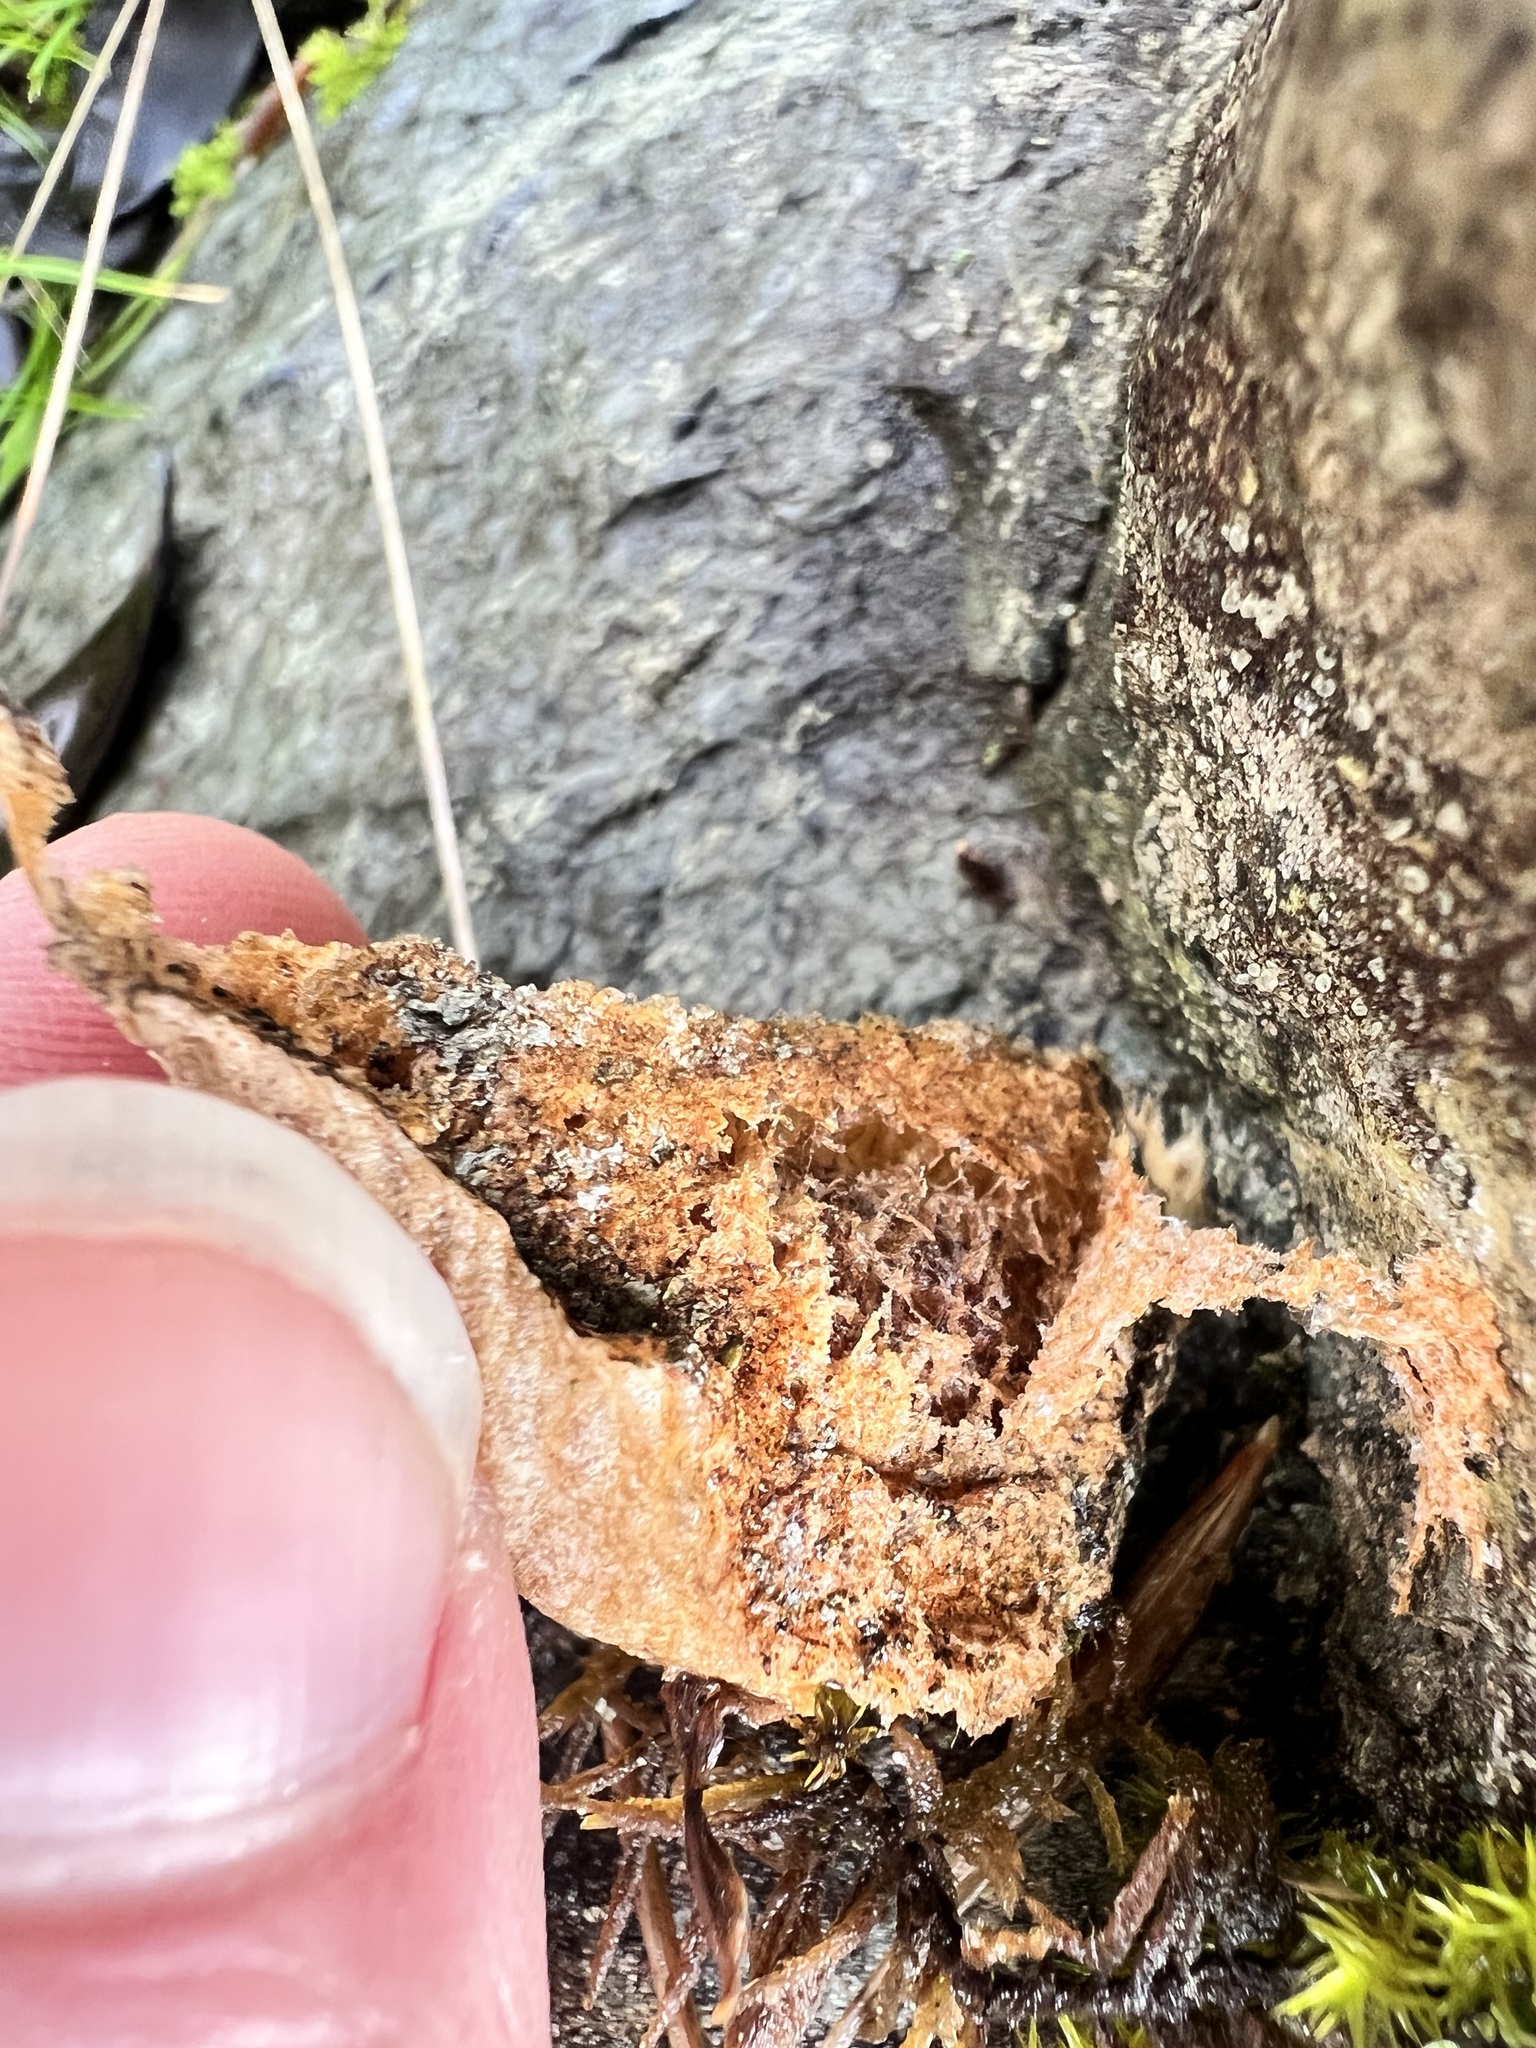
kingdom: Animalia
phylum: Arthropoda
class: Insecta
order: Mantodea
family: Mantidae
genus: Mantis
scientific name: Mantis religiosa
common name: Praying mantis
